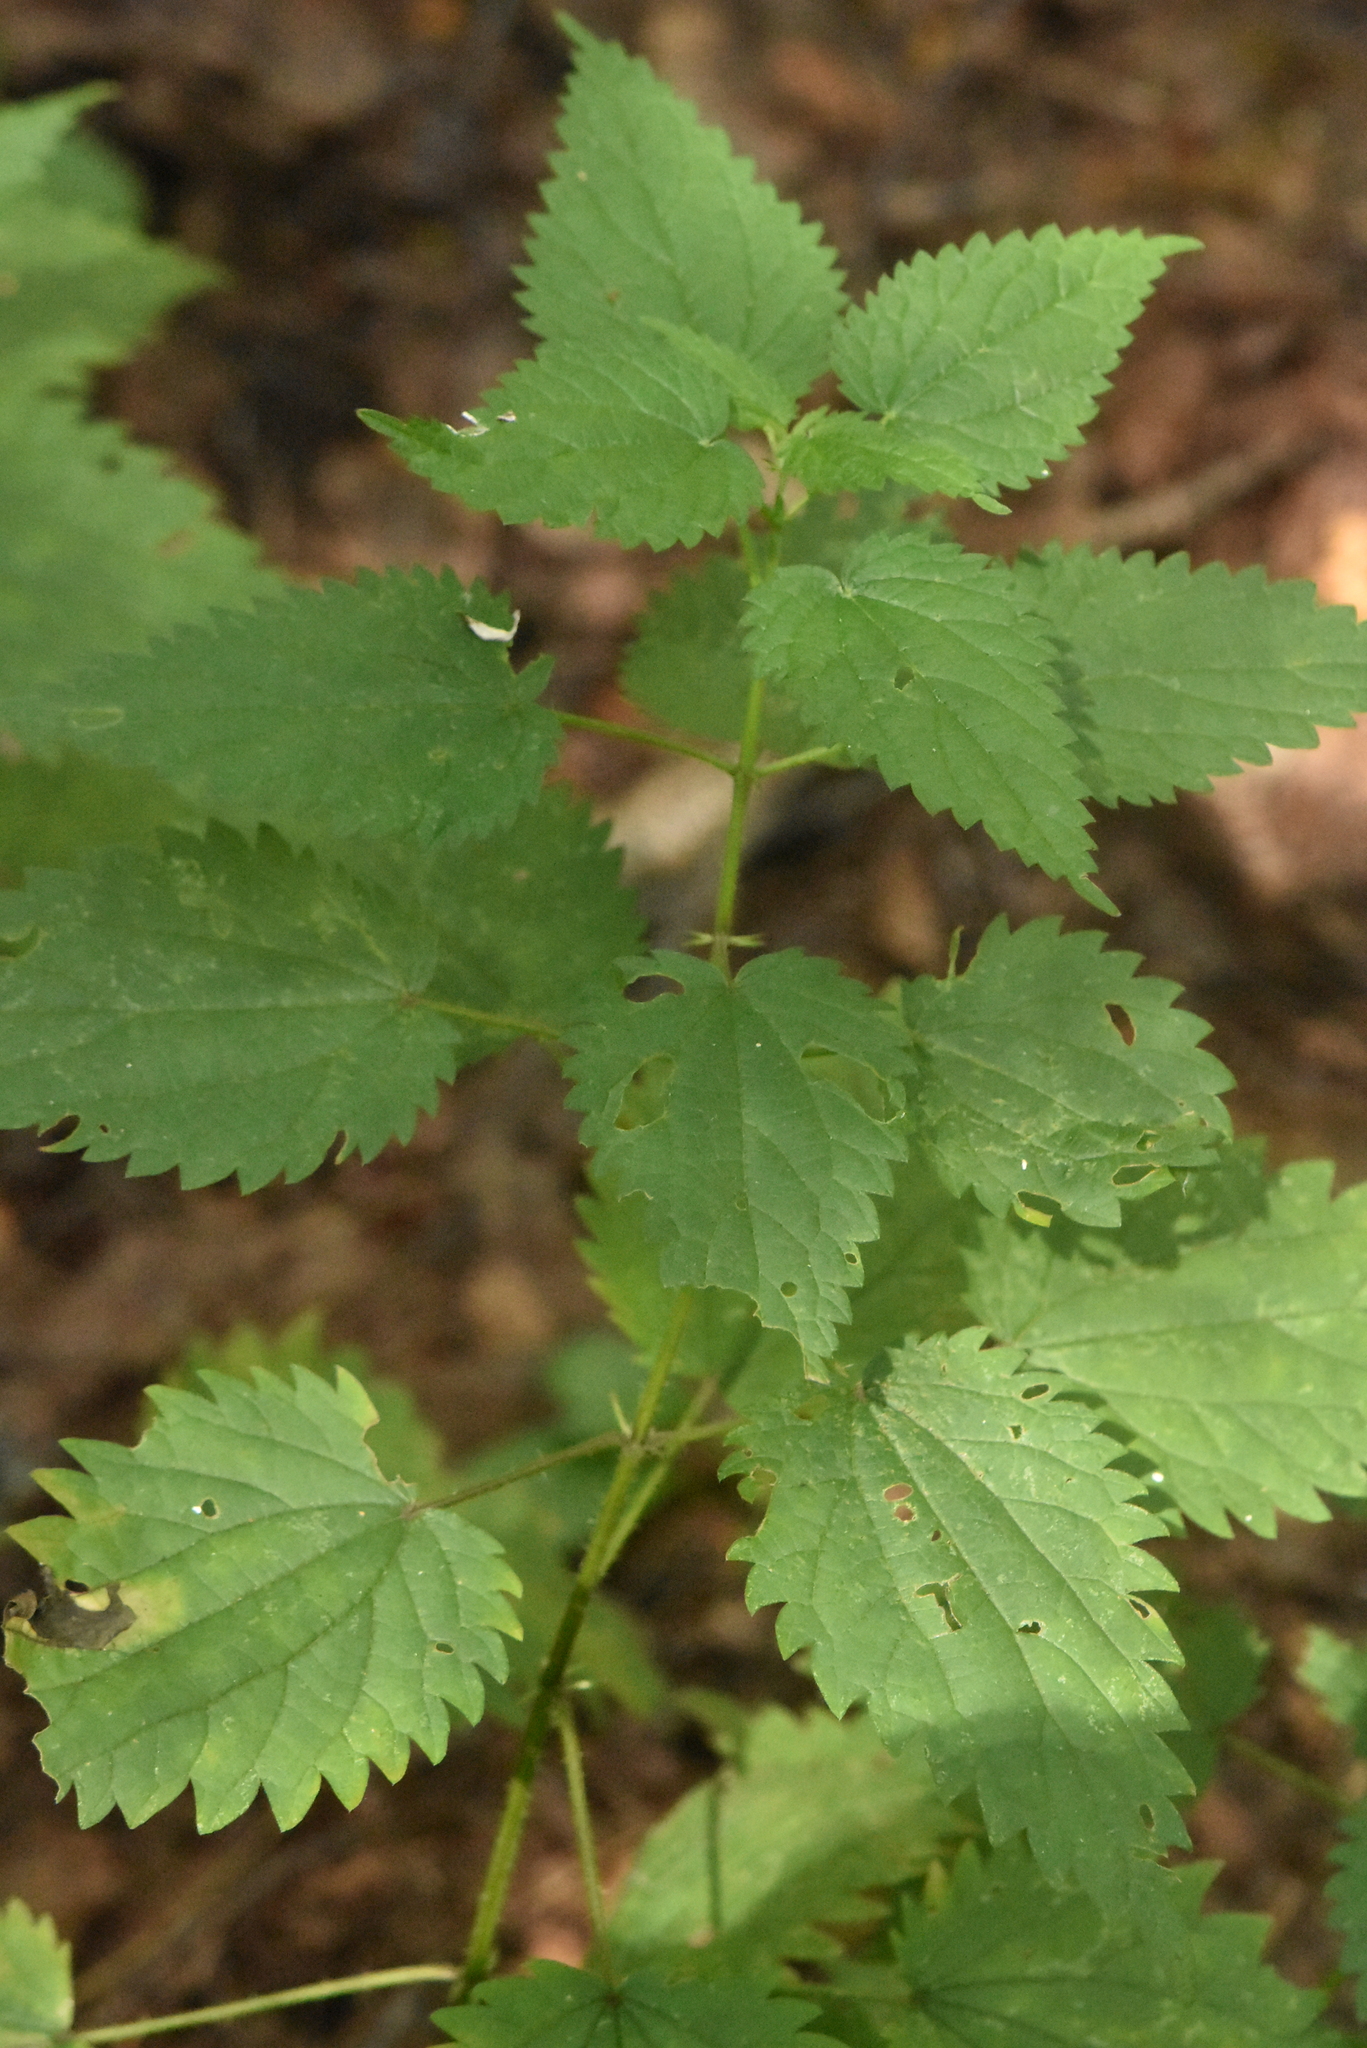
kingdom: Plantae
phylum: Tracheophyta
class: Magnoliopsida
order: Rosales
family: Urticaceae
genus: Urtica
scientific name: Urtica dioica
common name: Common nettle
